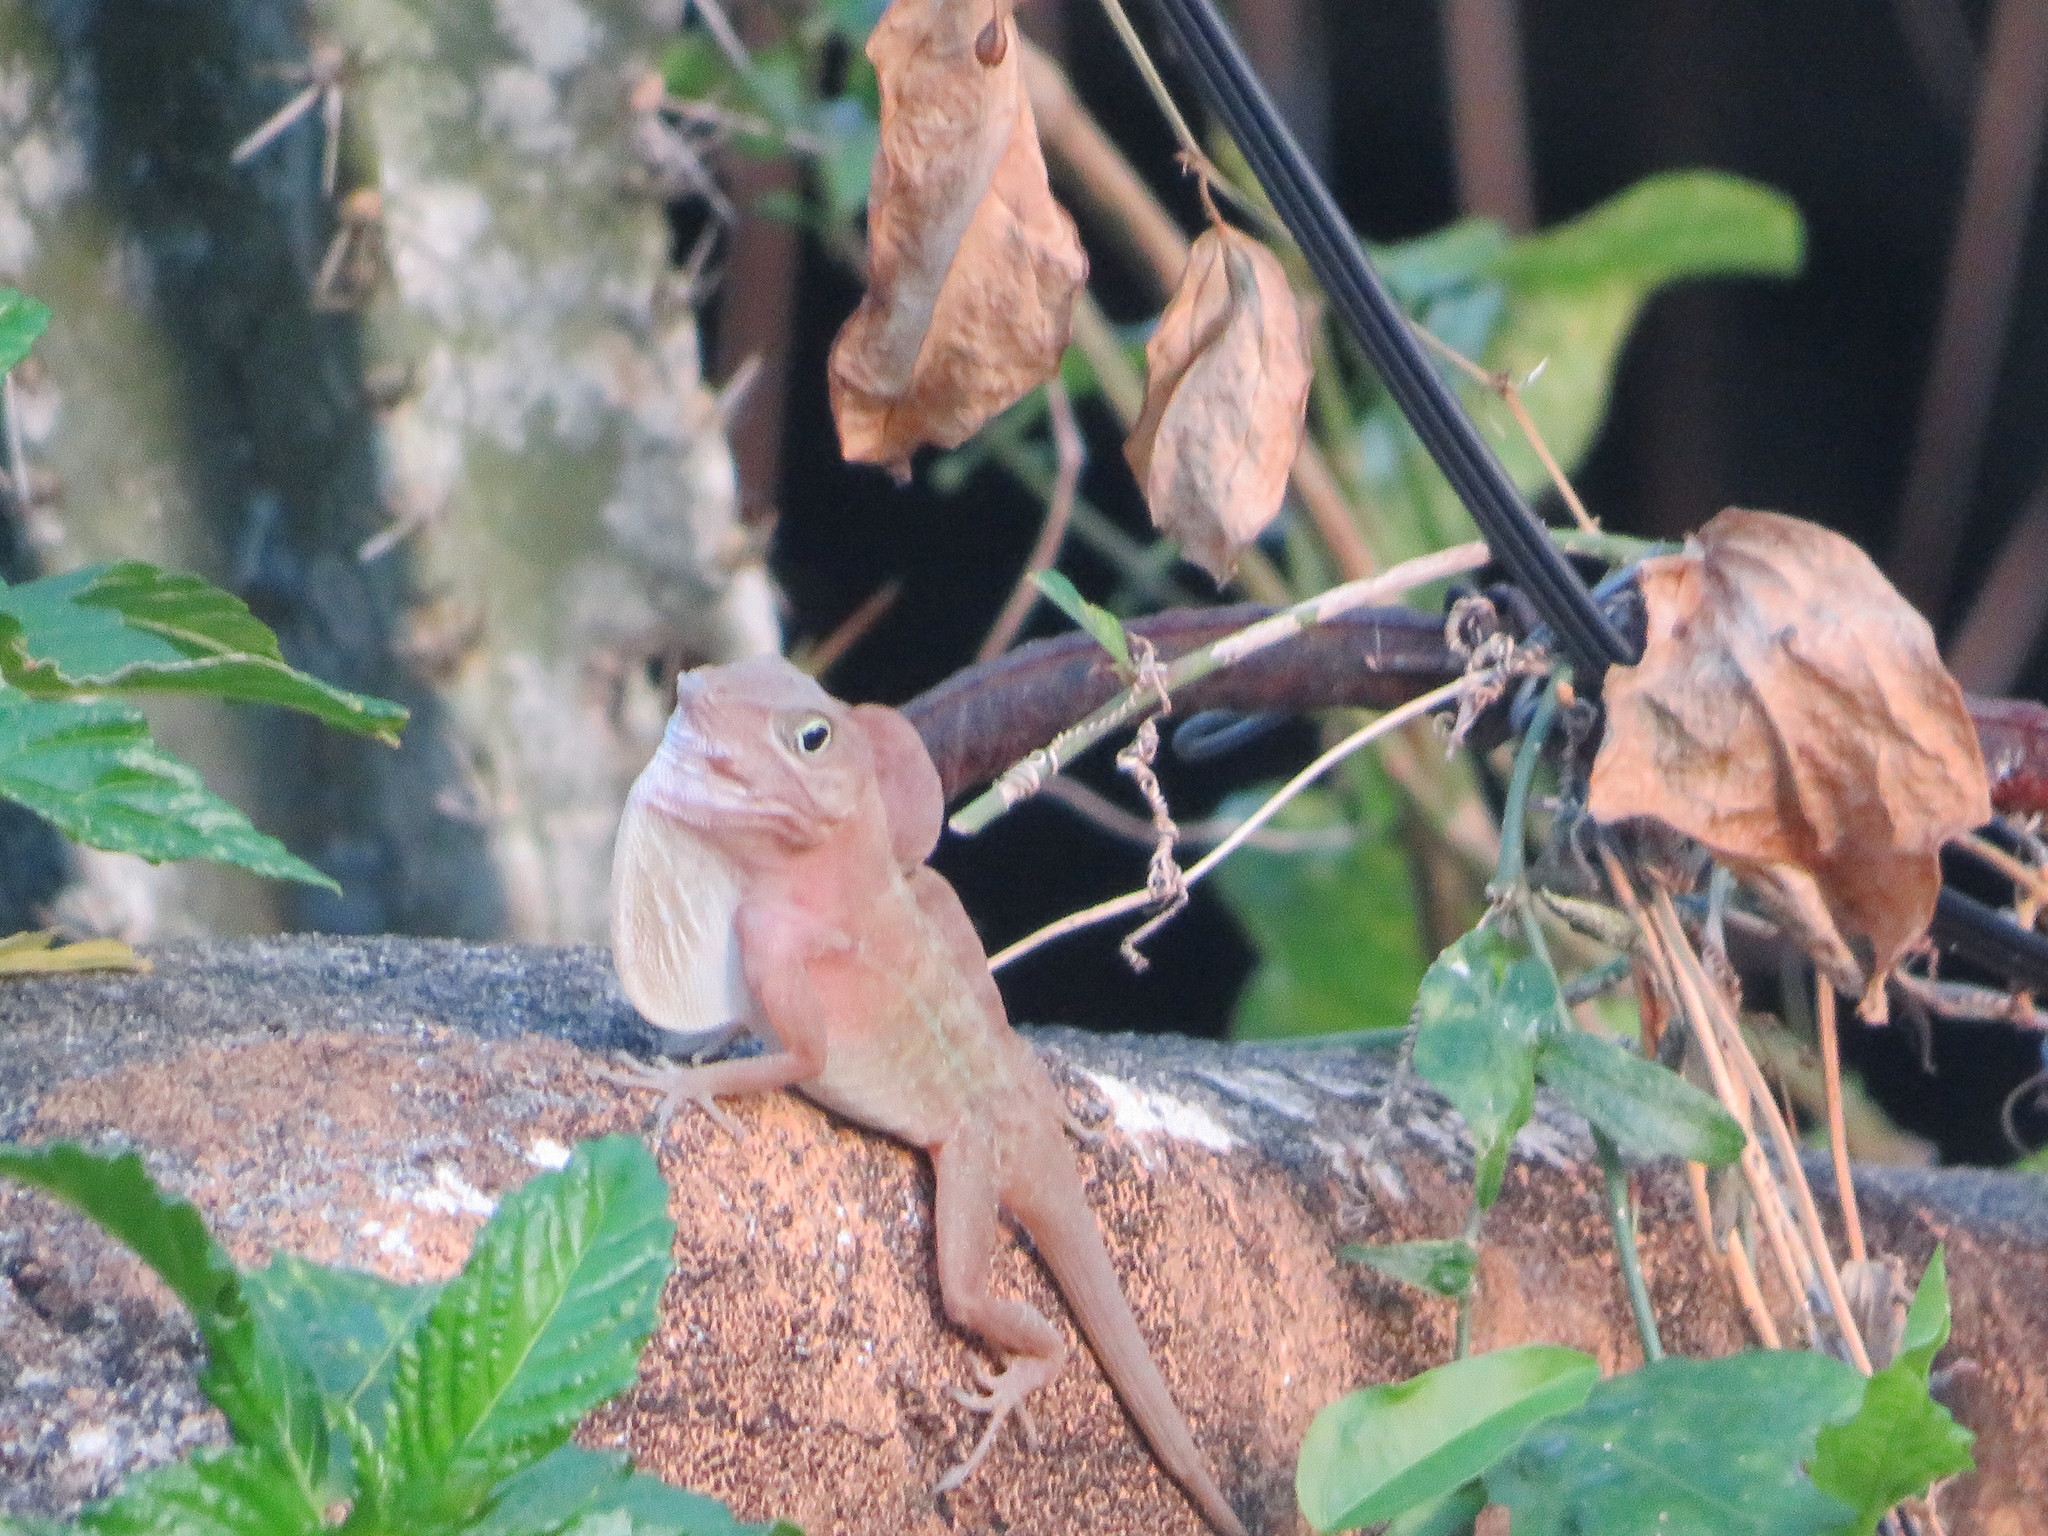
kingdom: Animalia
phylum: Chordata
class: Squamata
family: Dactyloidae
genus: Anolis
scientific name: Anolis hispaniolae
